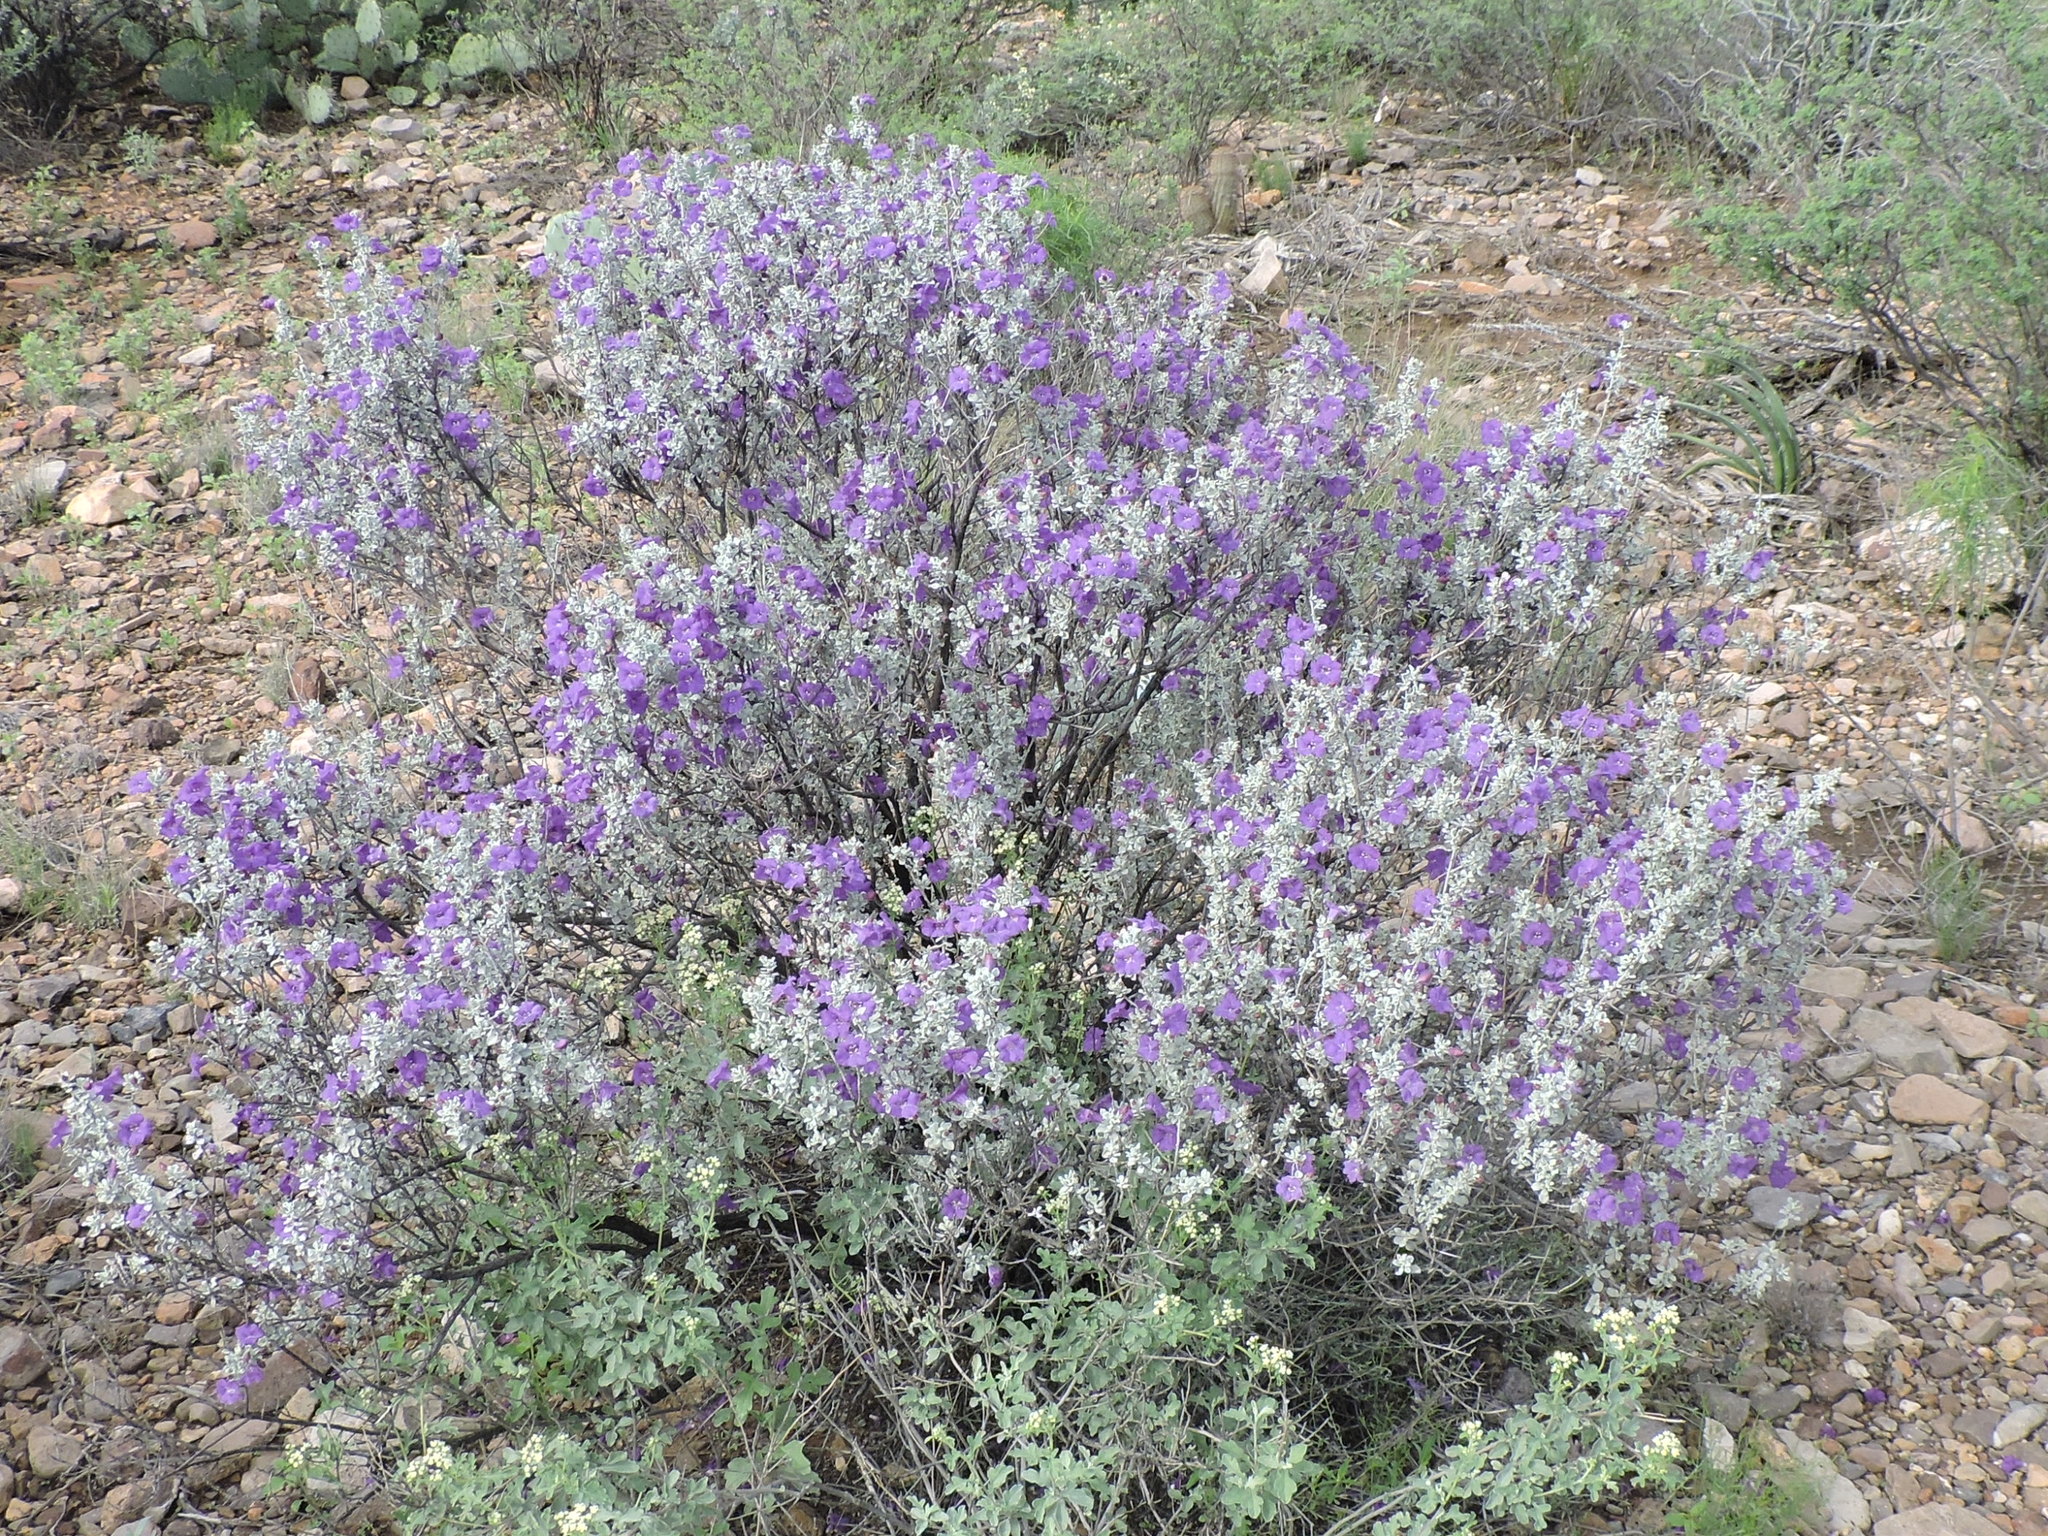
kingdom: Plantae
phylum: Tracheophyta
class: Magnoliopsida
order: Lamiales
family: Scrophulariaceae
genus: Leucophyllum
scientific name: Leucophyllum candidum
